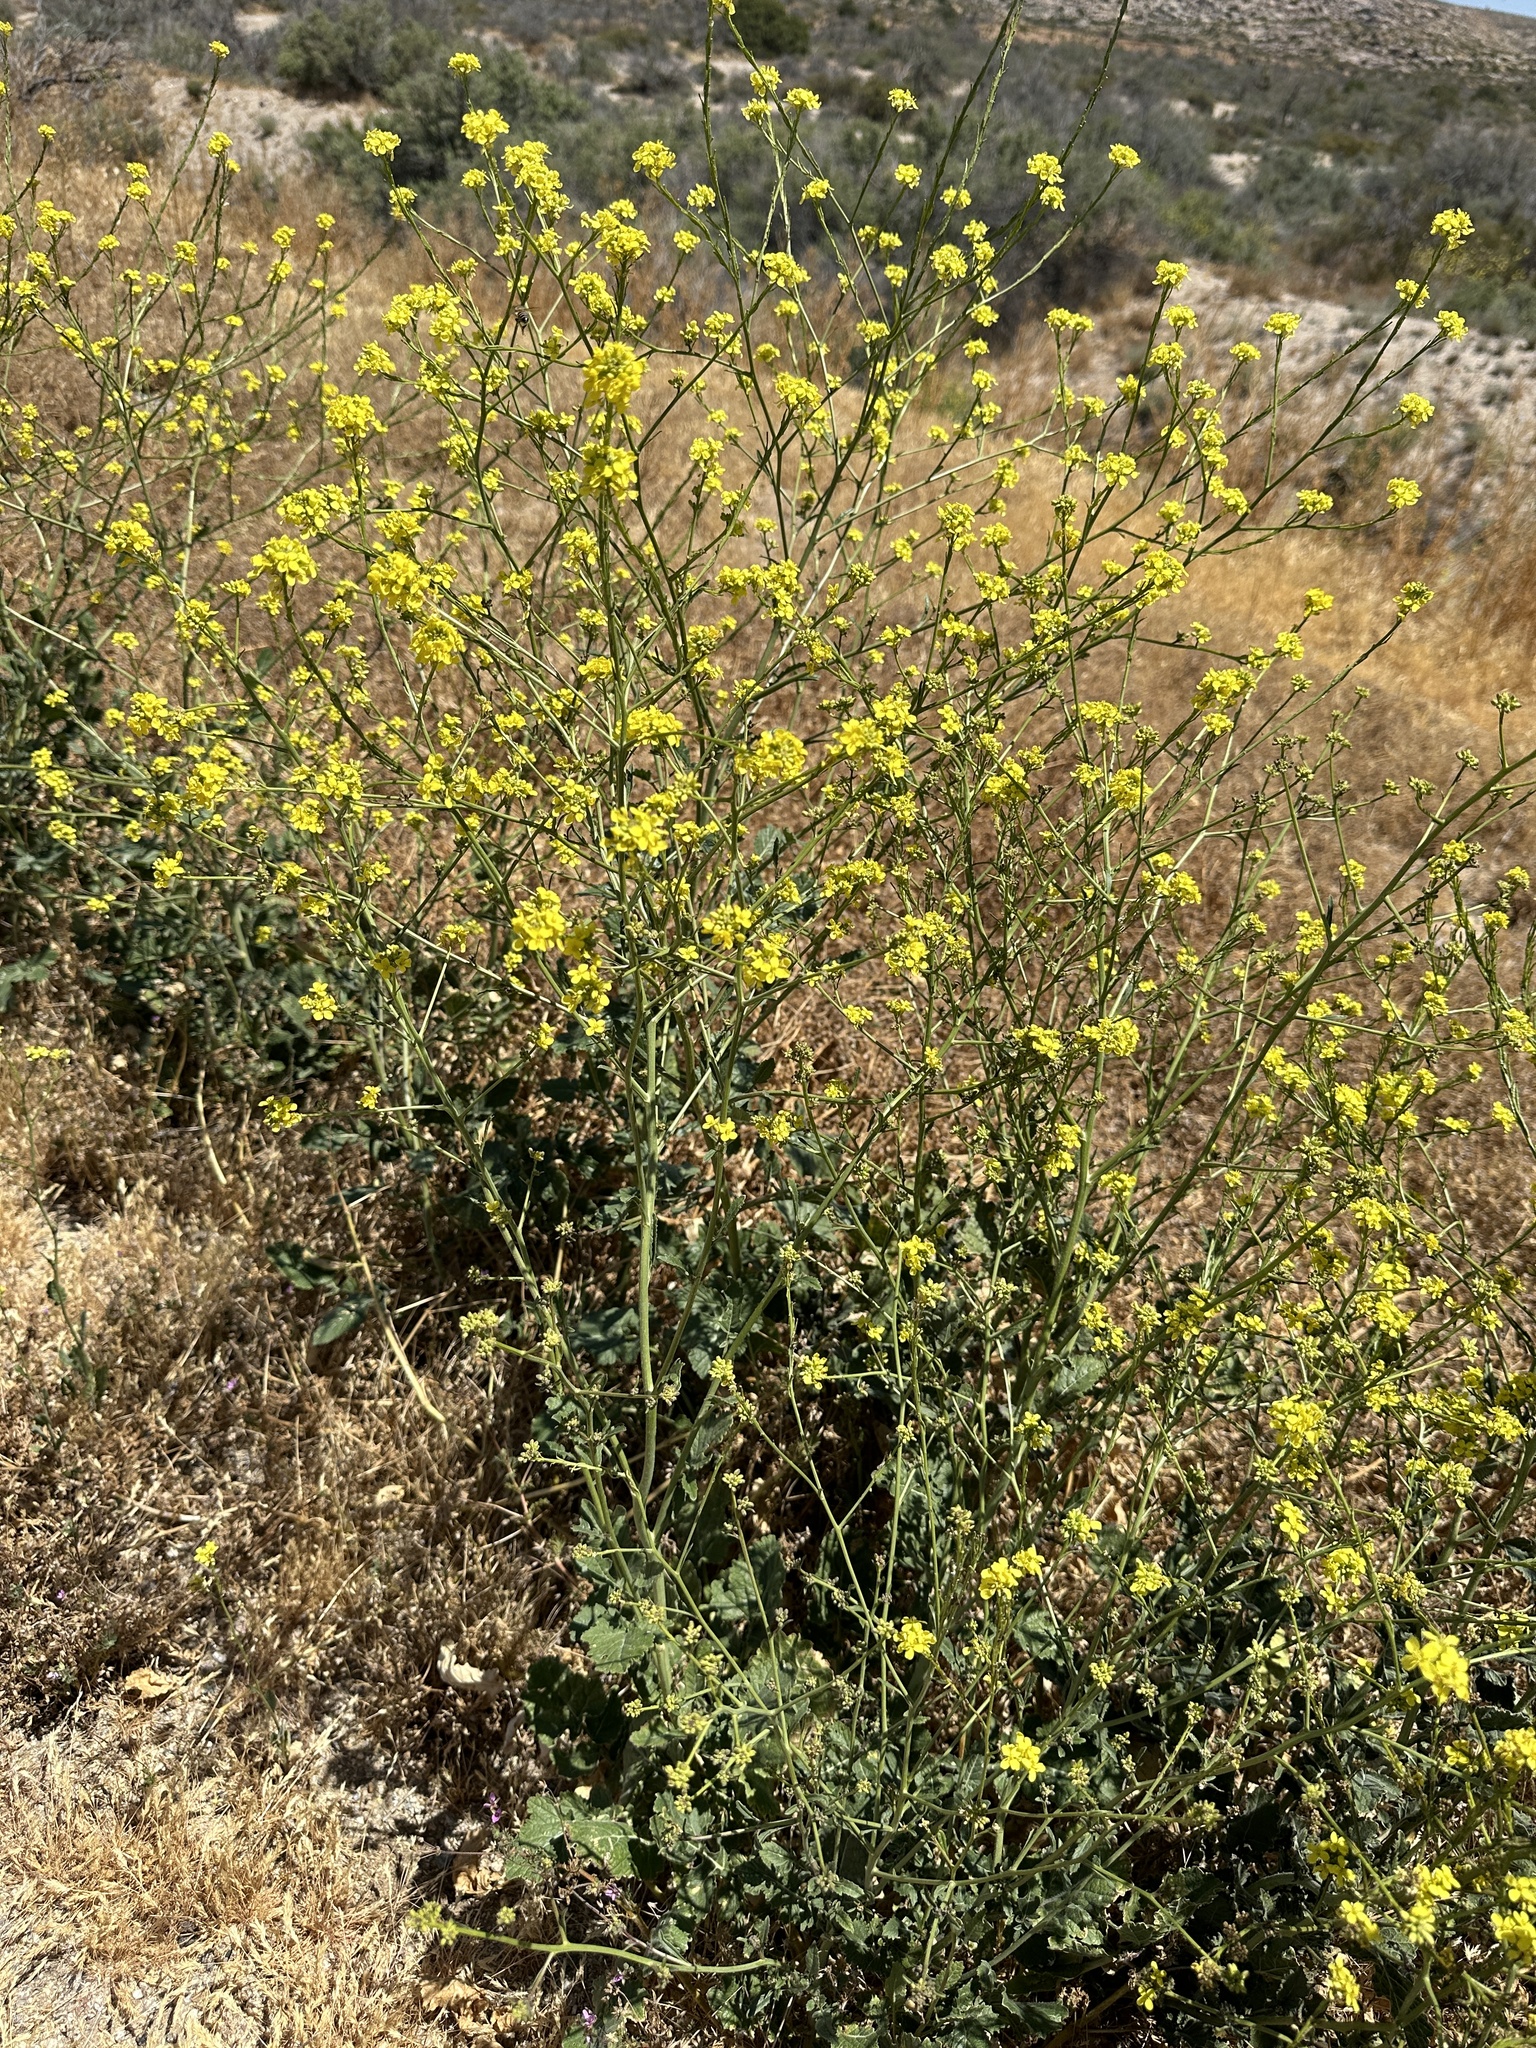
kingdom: Plantae
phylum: Tracheophyta
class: Magnoliopsida
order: Brassicales
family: Brassicaceae
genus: Hirschfeldia
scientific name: Hirschfeldia incana
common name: Hoary mustard
